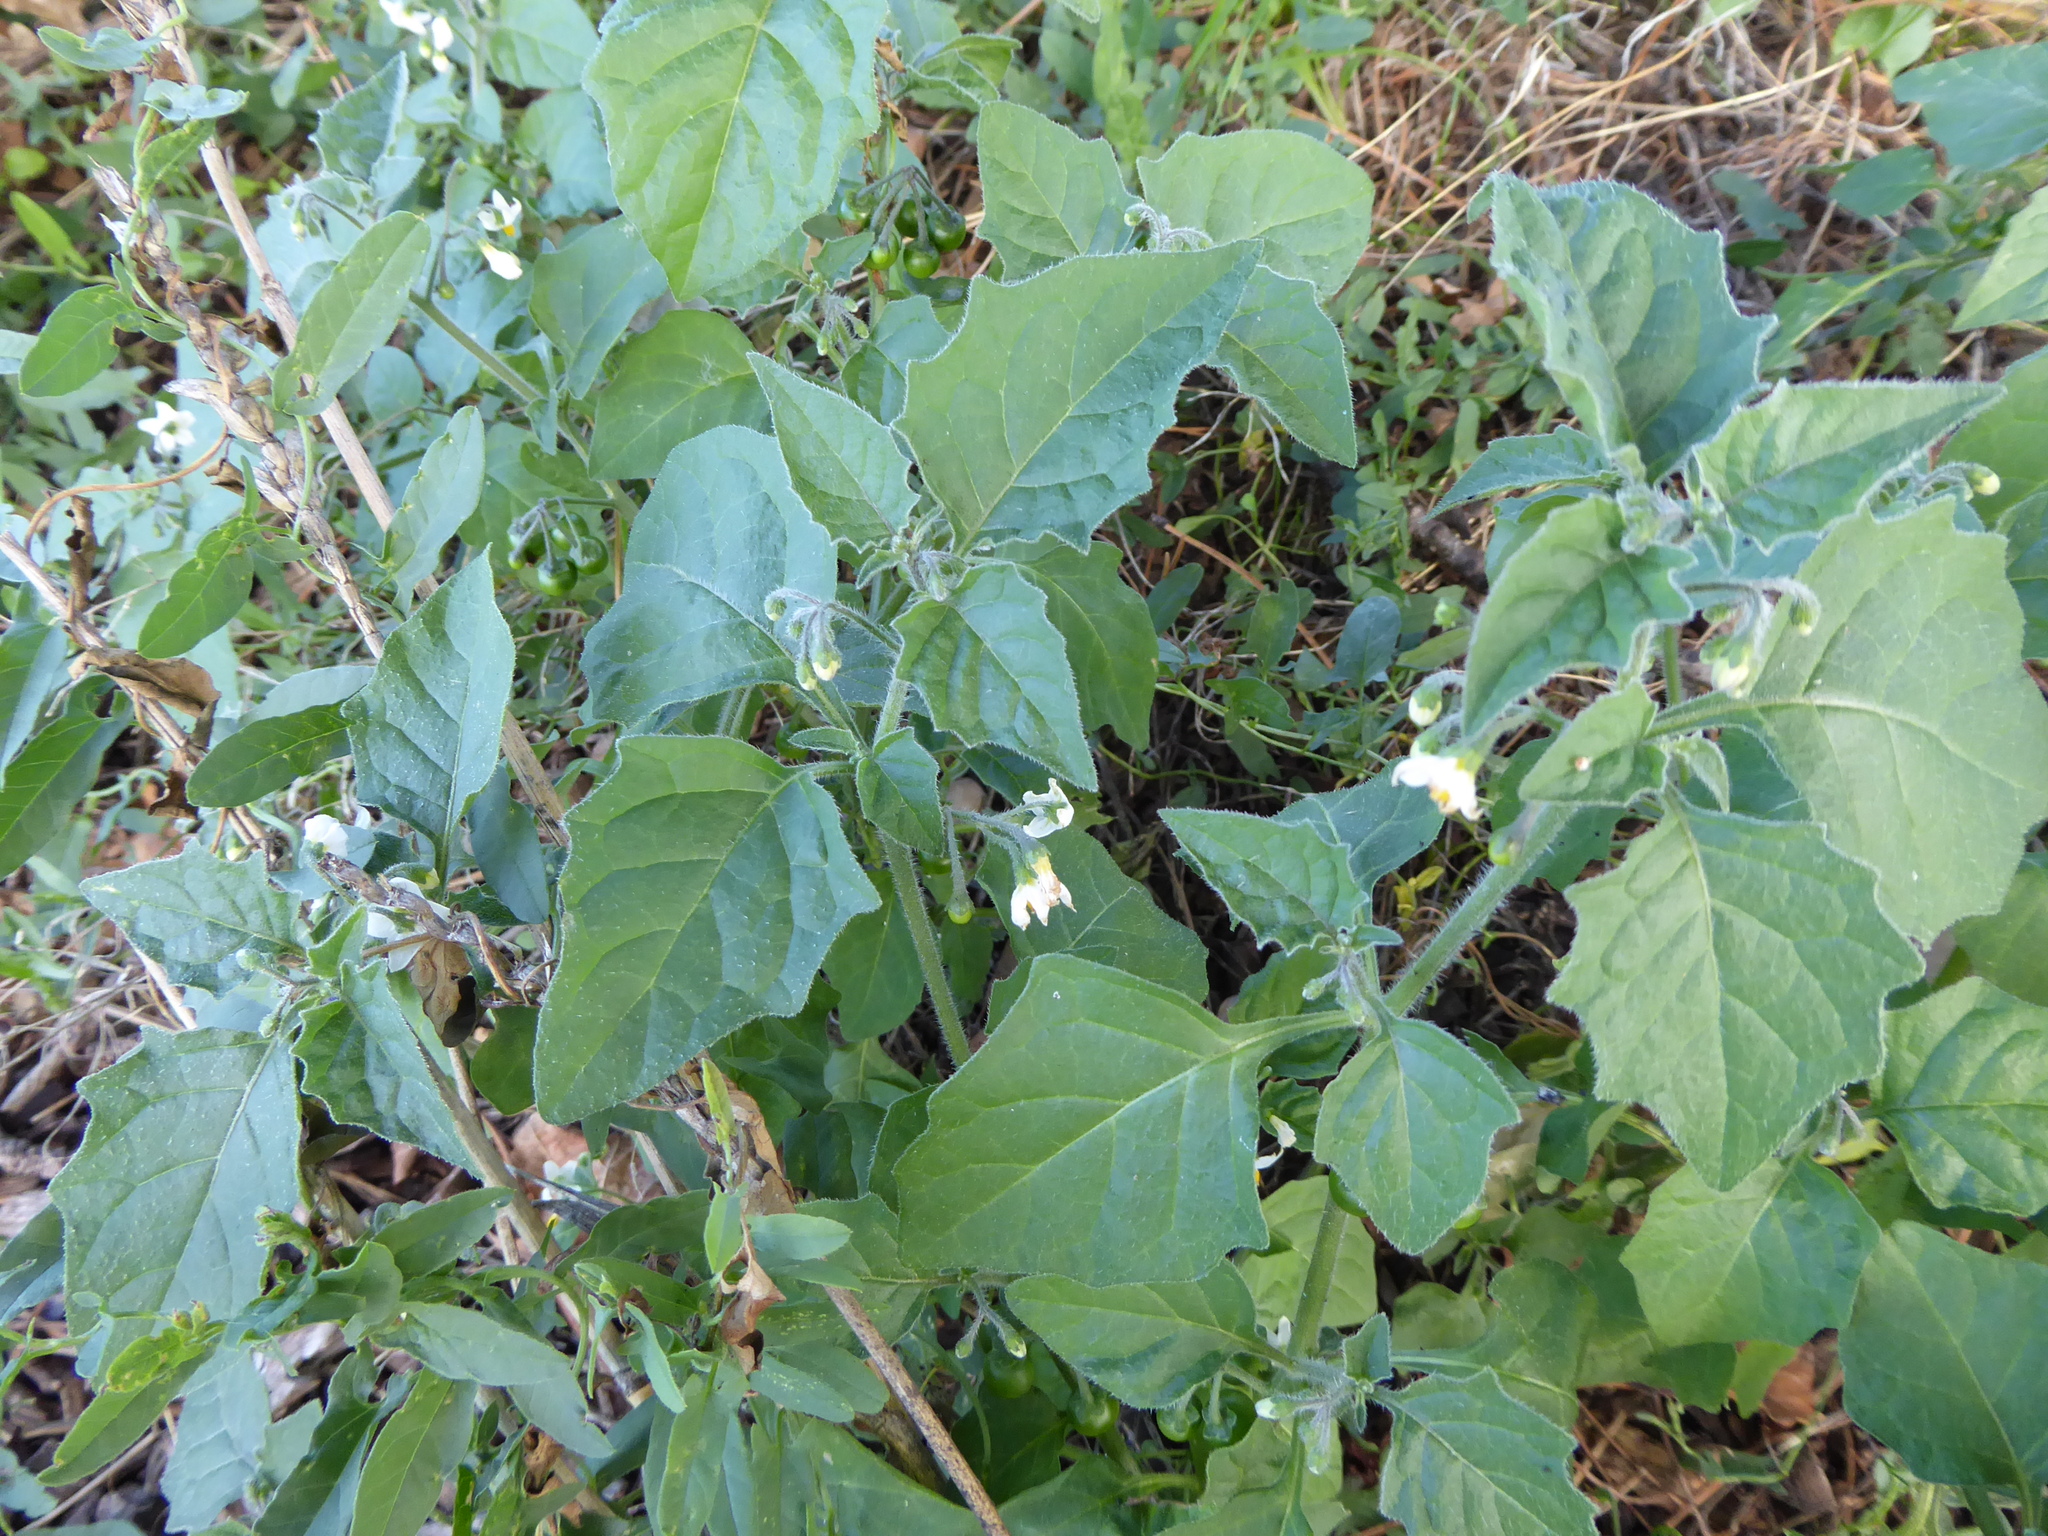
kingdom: Plantae
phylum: Tracheophyta
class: Magnoliopsida
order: Solanales
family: Solanaceae
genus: Solanum
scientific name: Solanum nigrum
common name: Black nightshade
